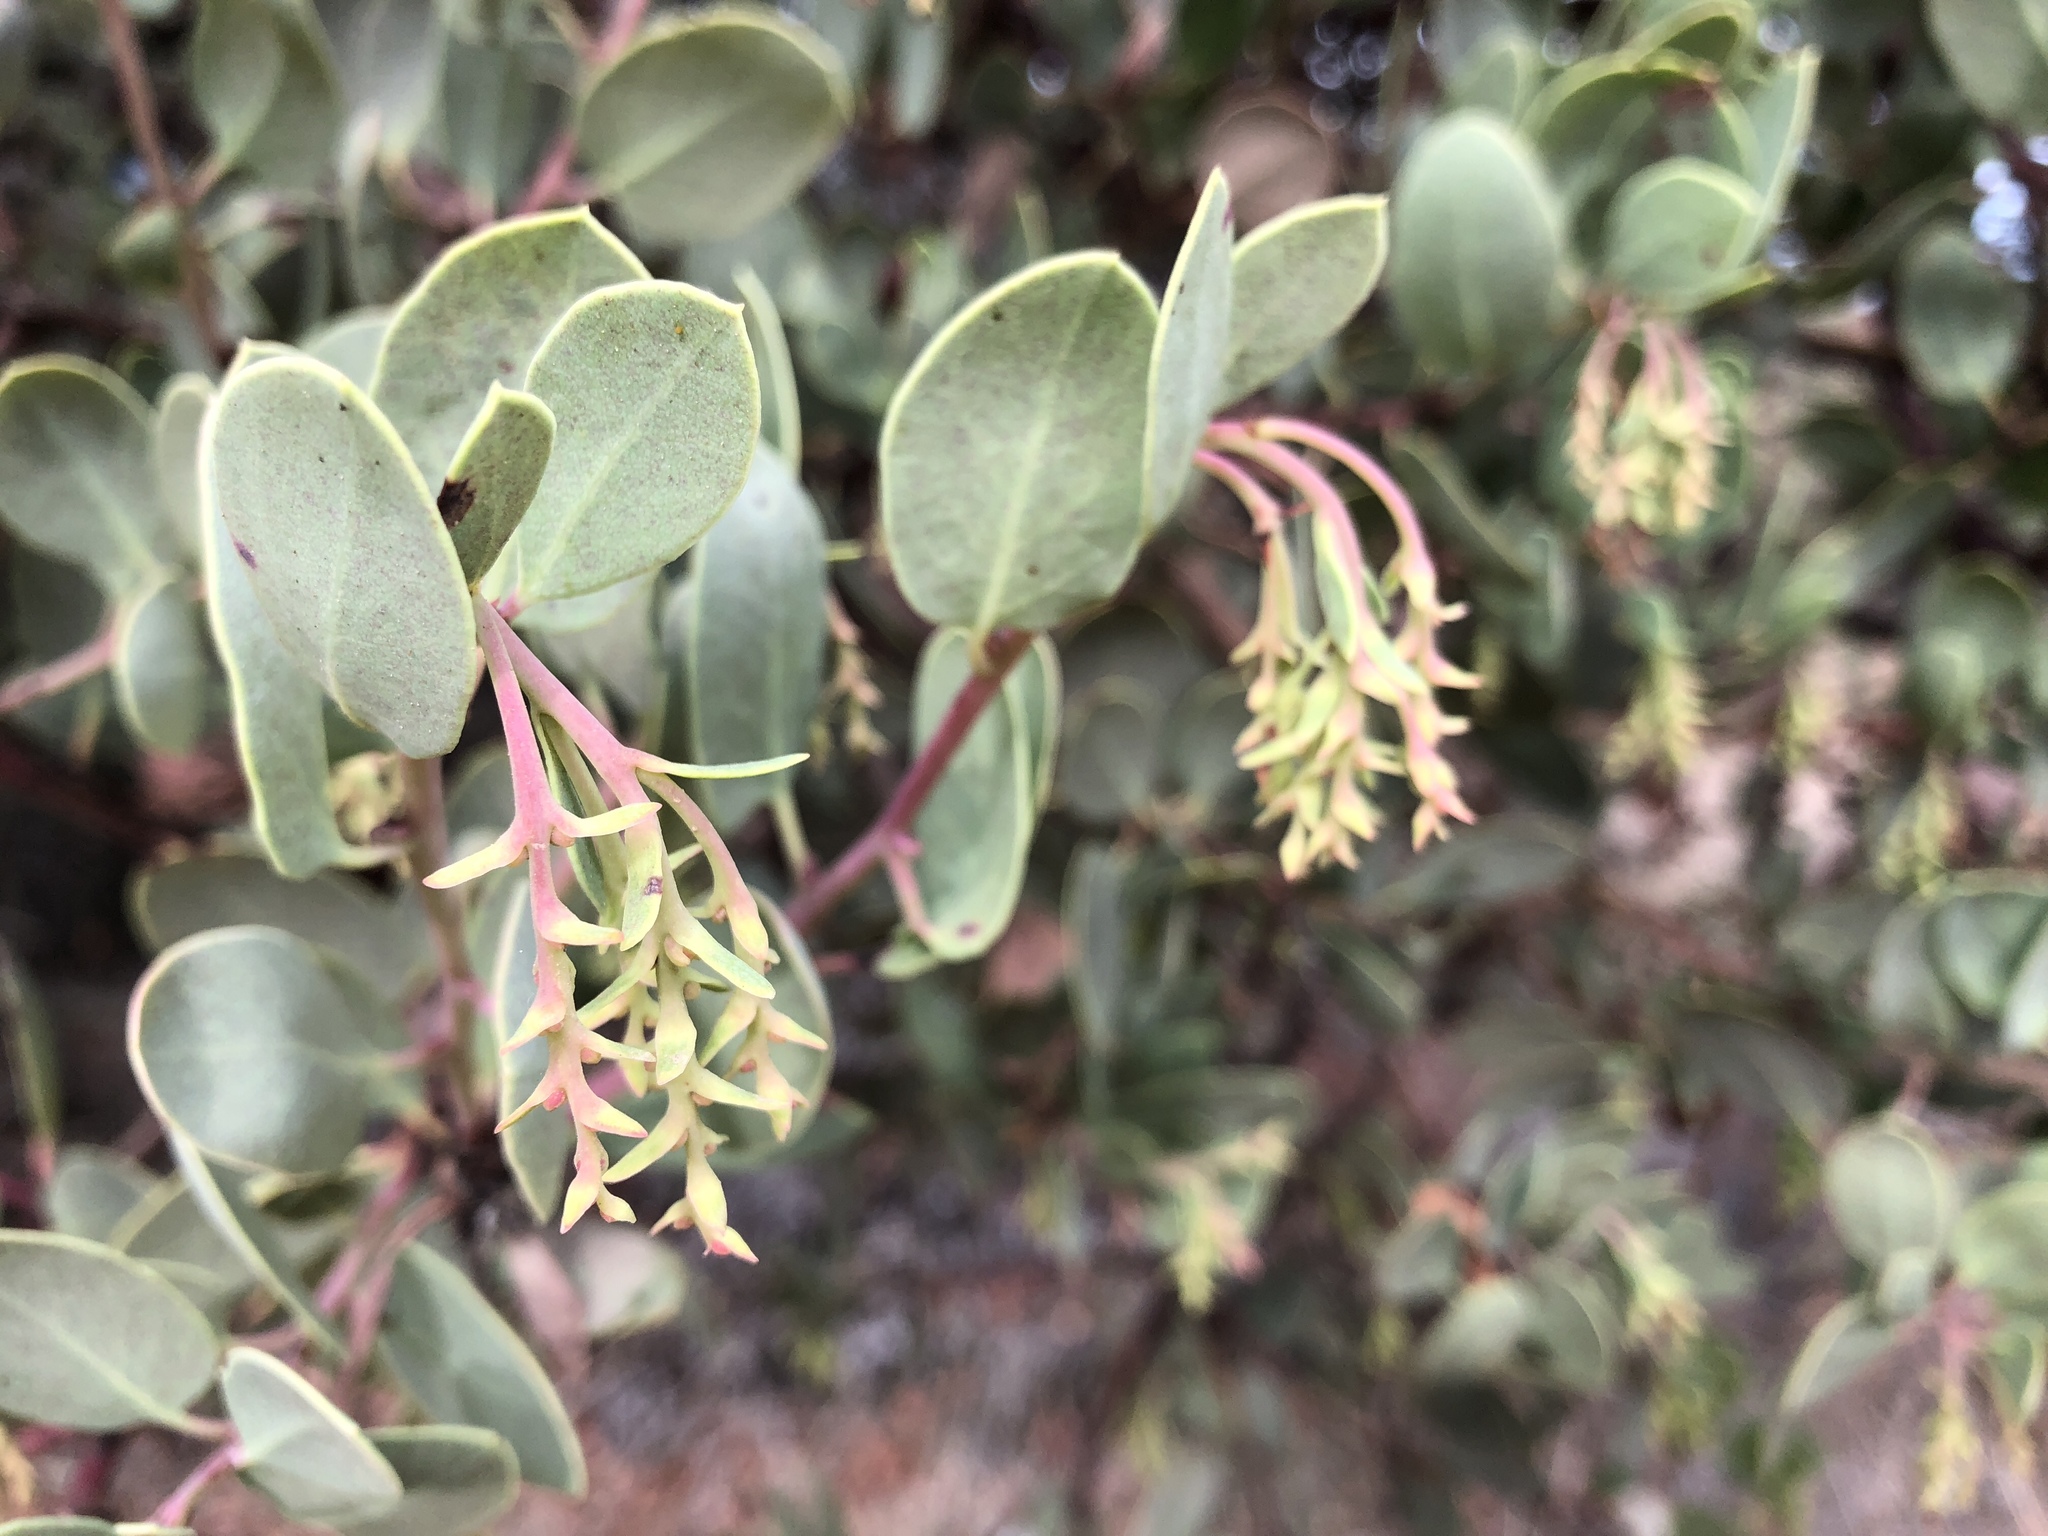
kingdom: Plantae
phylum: Tracheophyta
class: Magnoliopsida
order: Ericales
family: Ericaceae
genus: Arctostaphylos
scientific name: Arctostaphylos glauca
